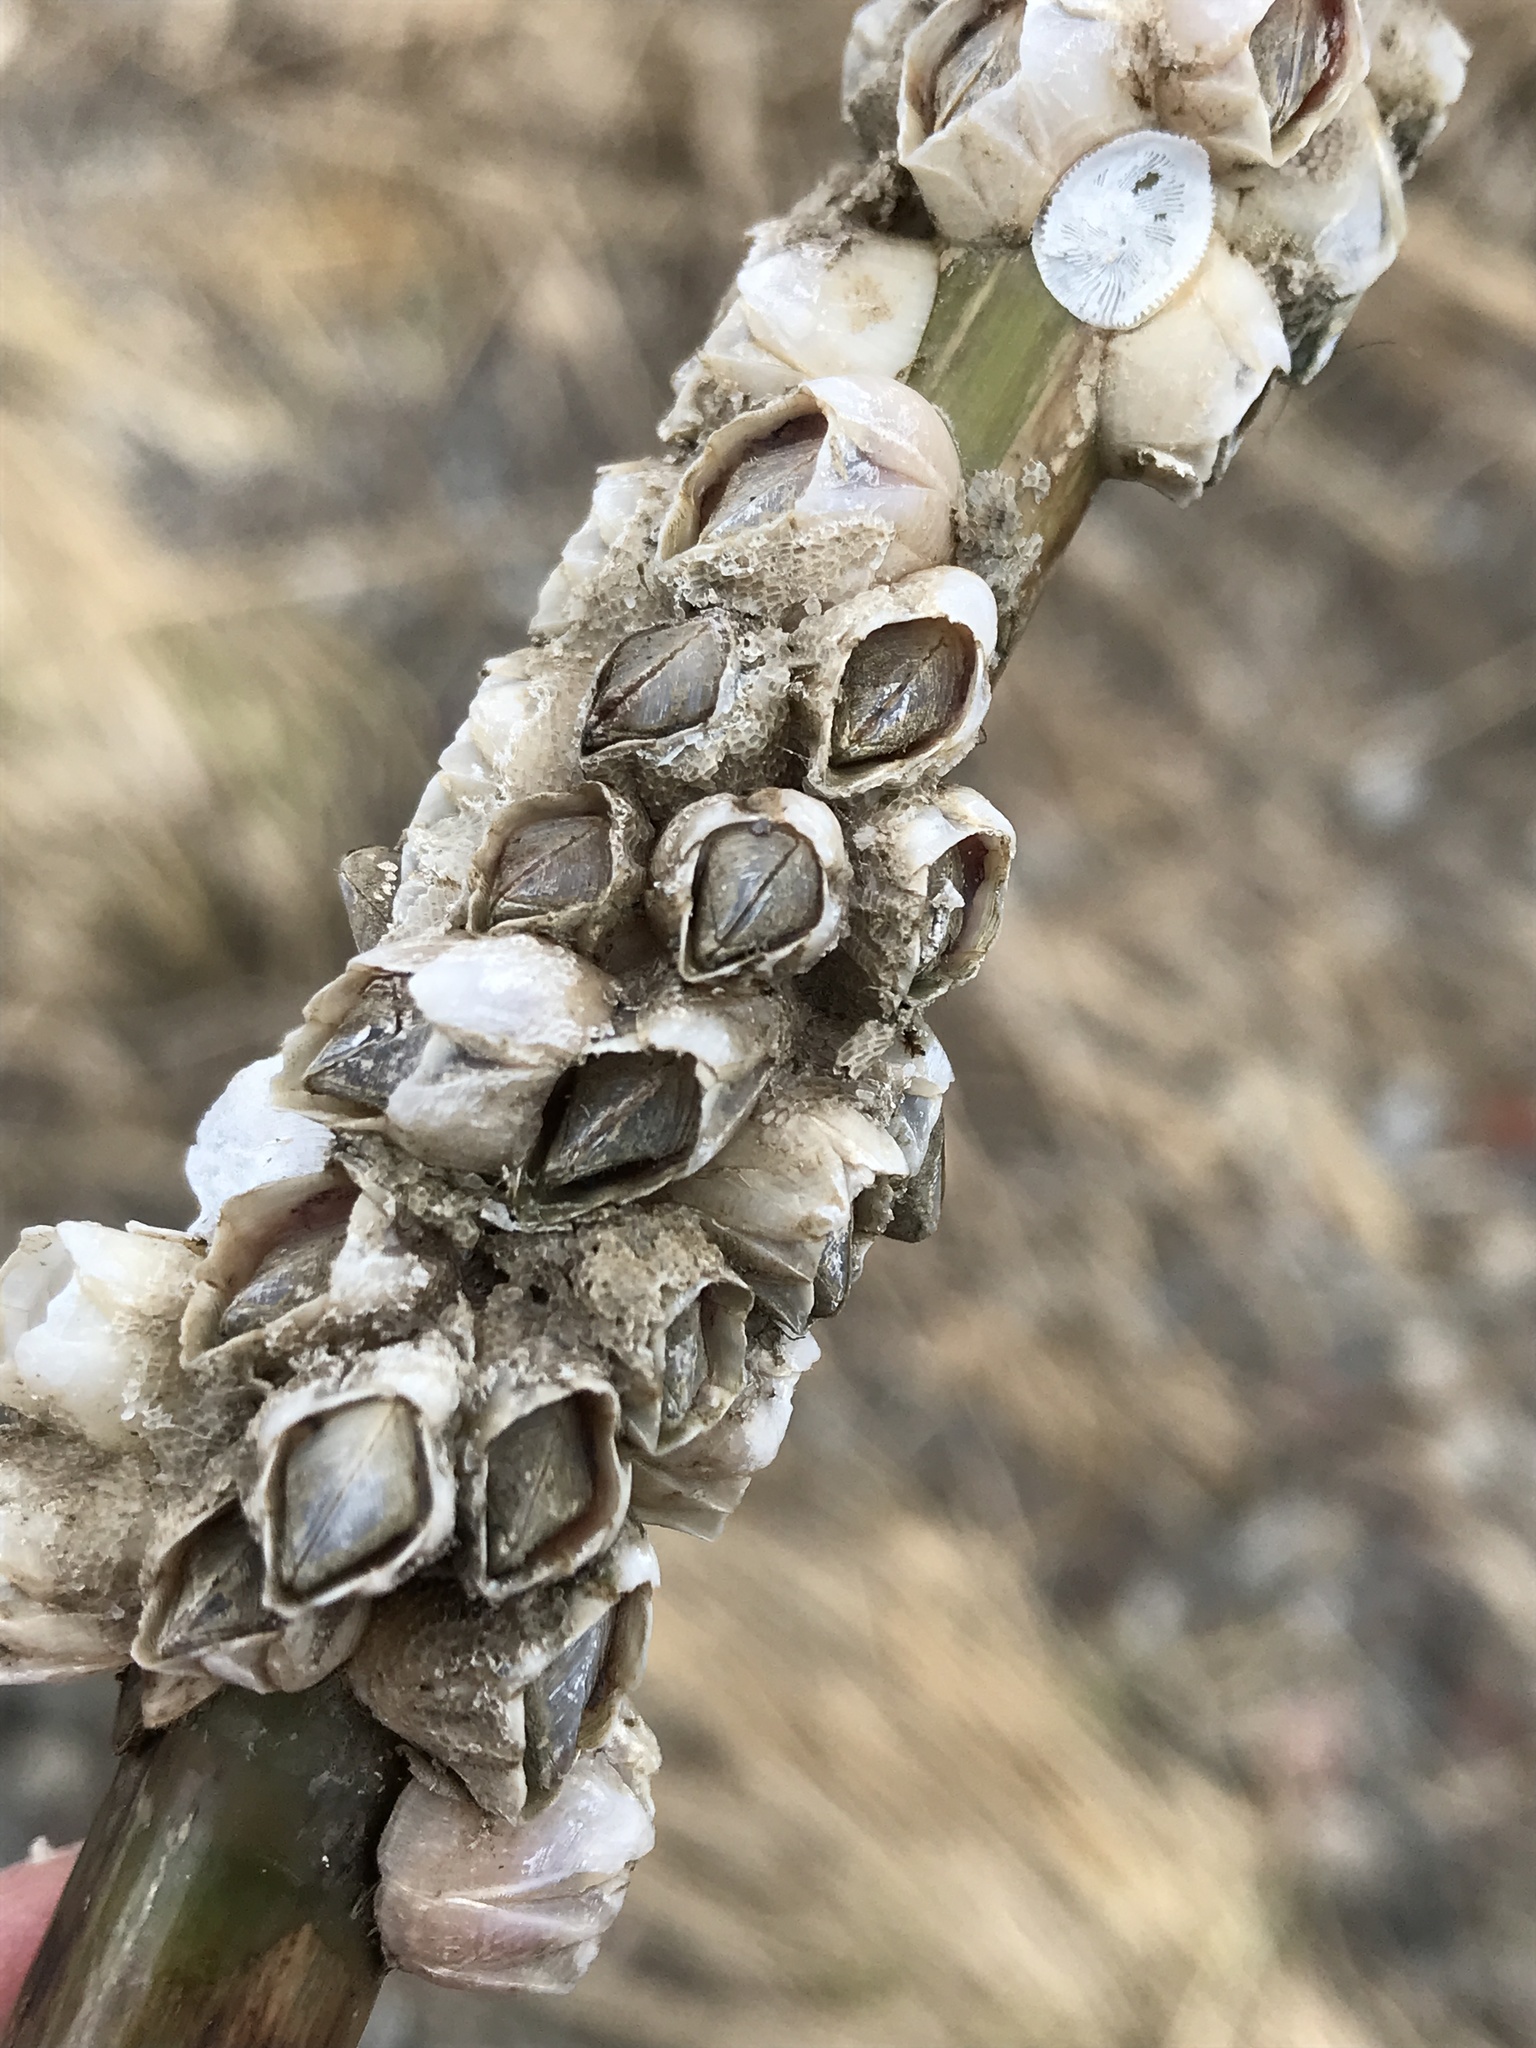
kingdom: Animalia
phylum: Arthropoda
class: Maxillopoda
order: Sessilia
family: Balanidae
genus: Amphibalanus
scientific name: Amphibalanus improvisus
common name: Bay barnacle
